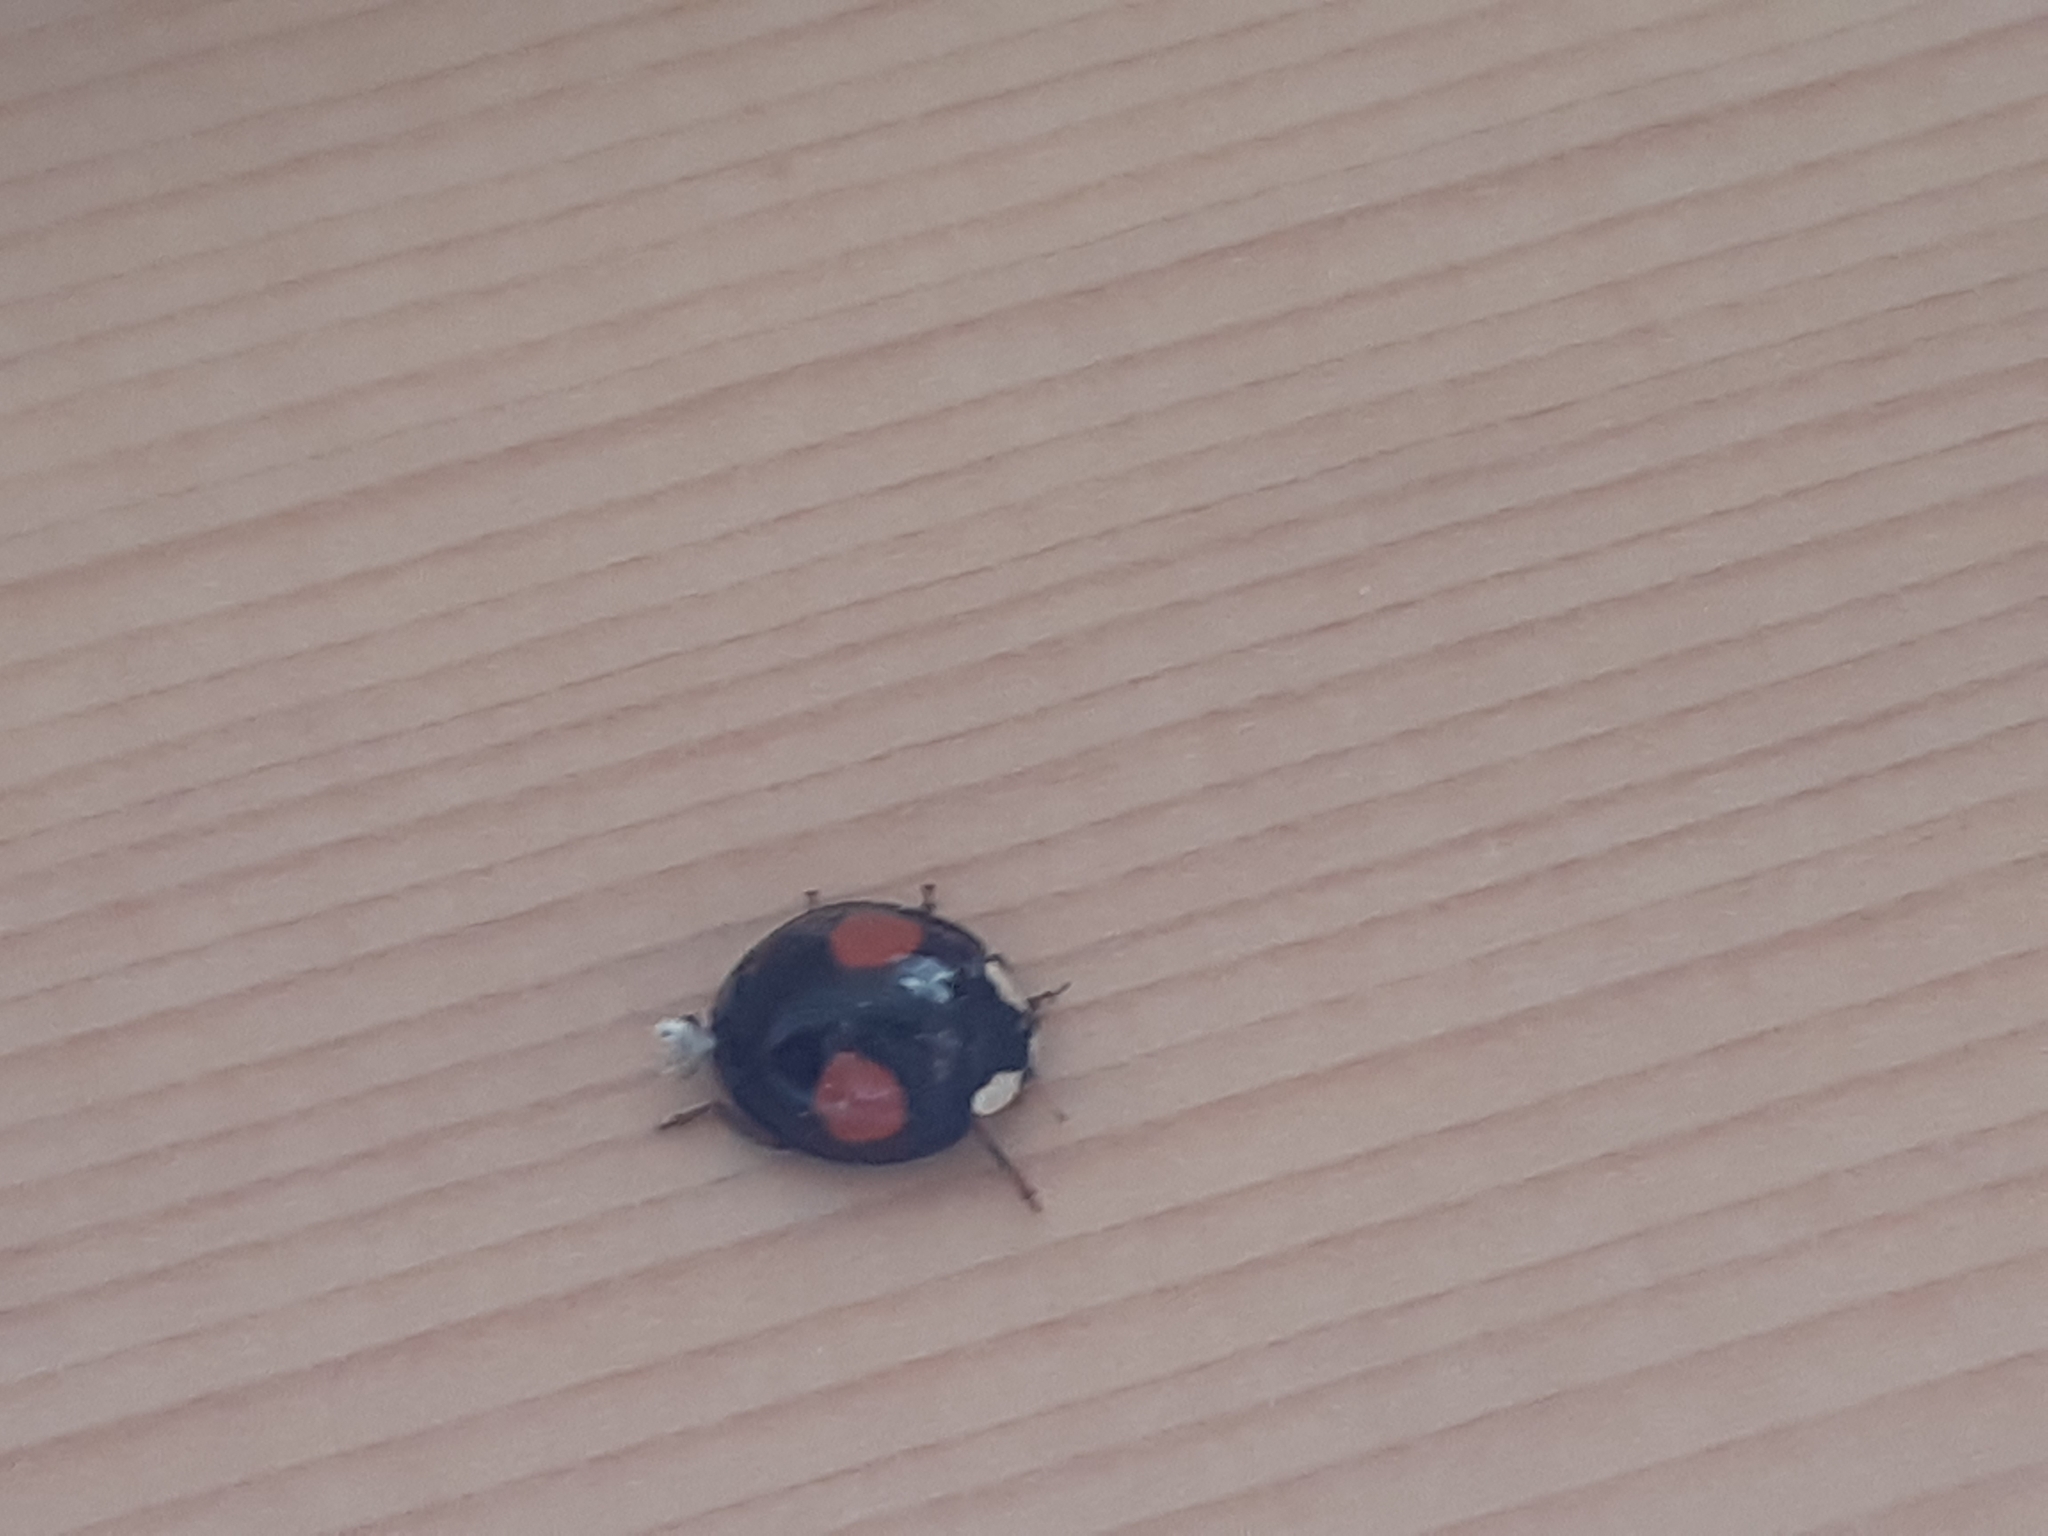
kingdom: Animalia
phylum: Arthropoda
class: Insecta
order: Coleoptera
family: Coccinellidae
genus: Harmonia
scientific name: Harmonia axyridis
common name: Harlequin ladybird
